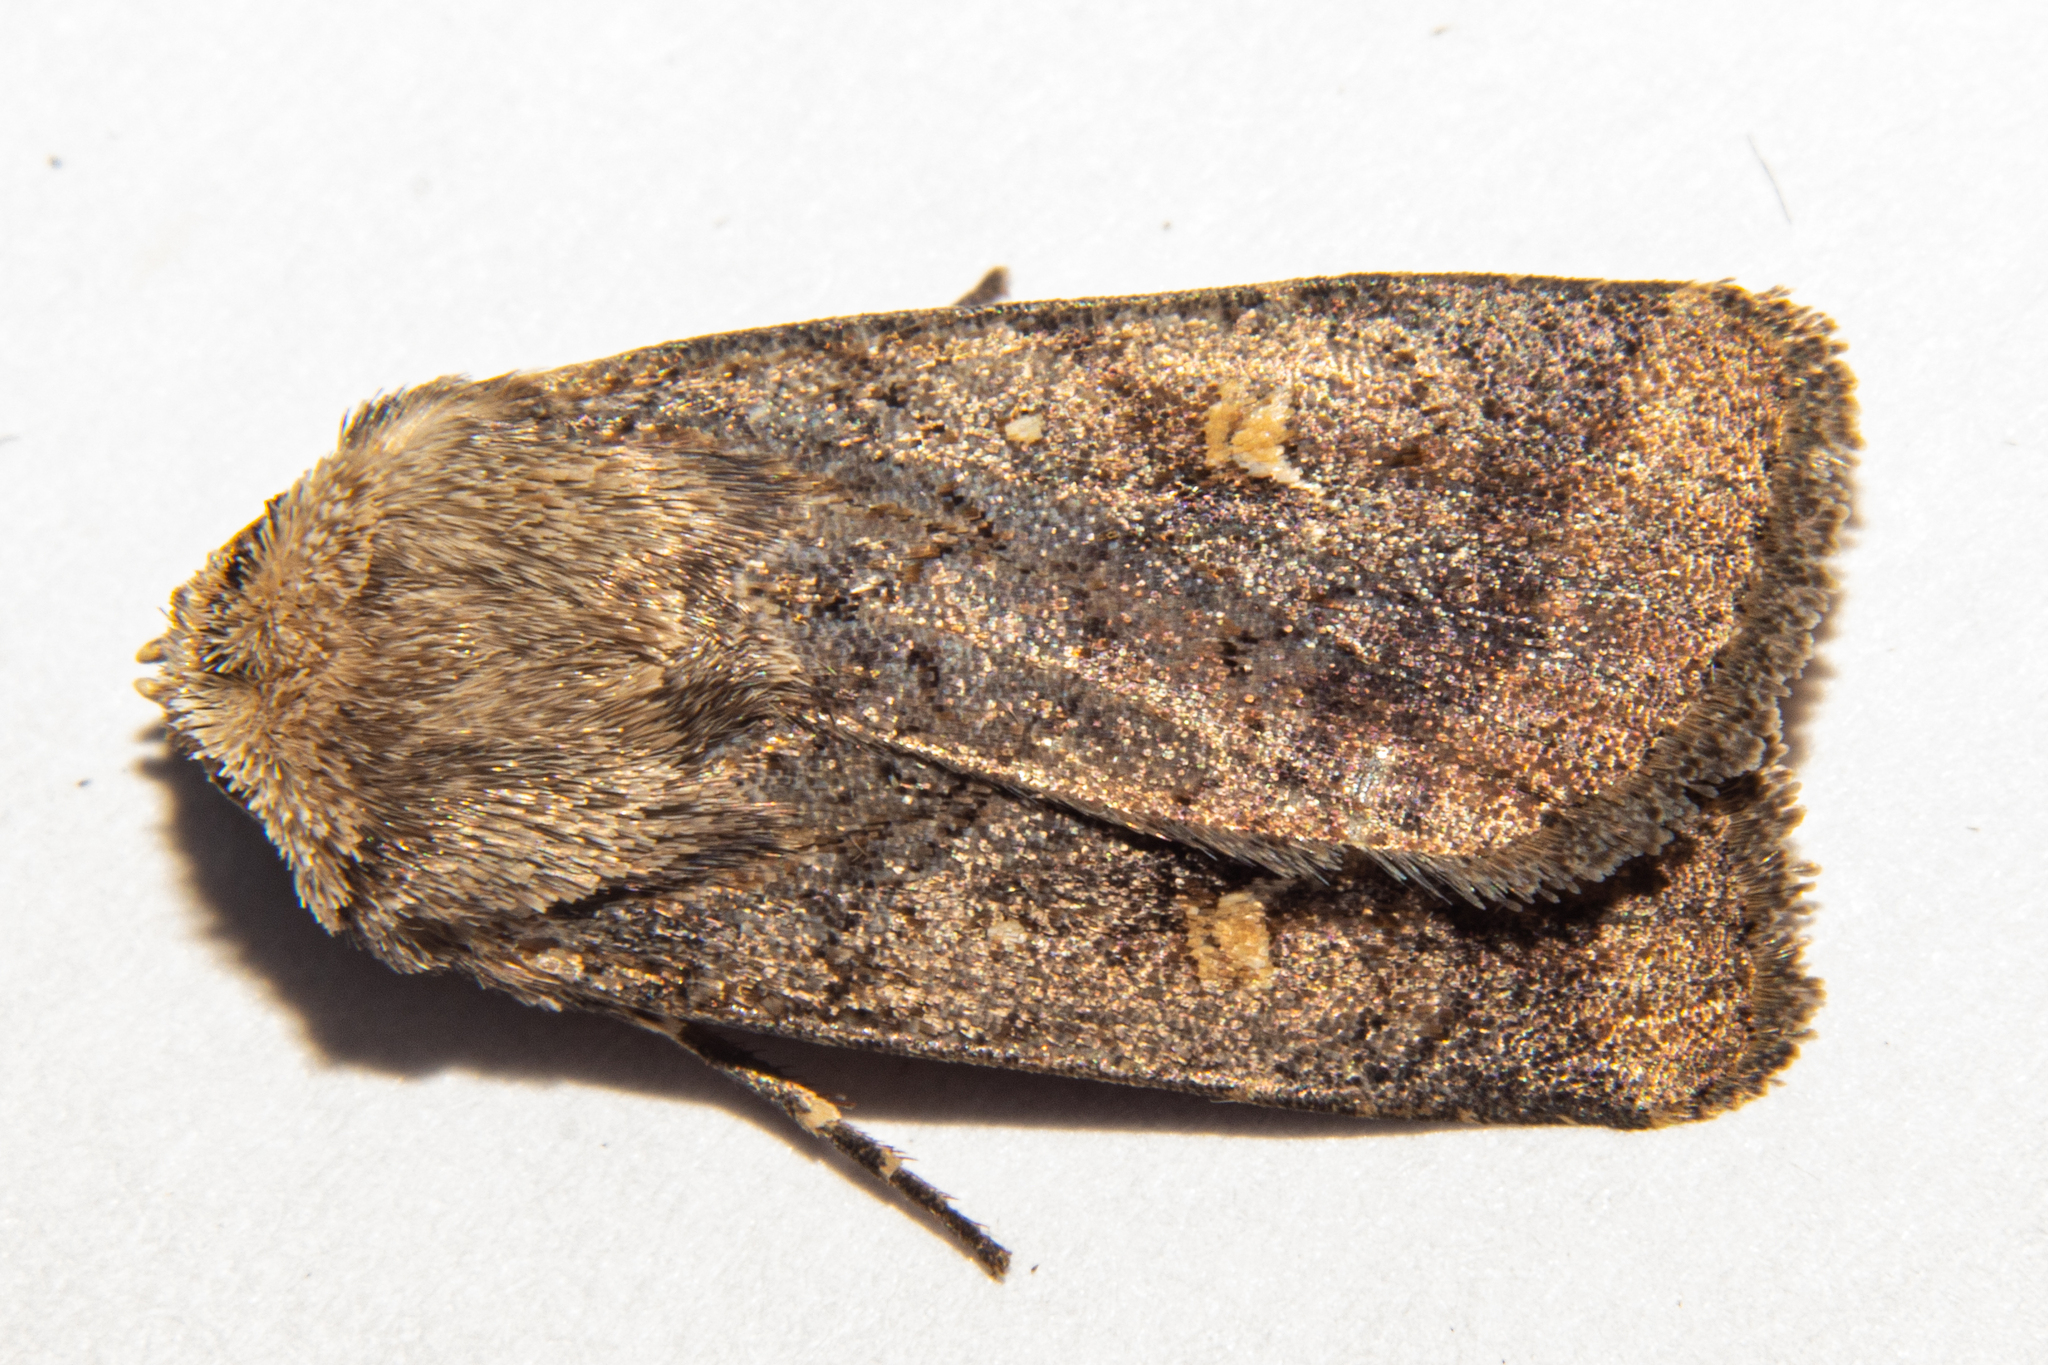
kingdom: Animalia
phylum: Arthropoda
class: Insecta
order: Lepidoptera
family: Noctuidae
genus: Proteuxoa
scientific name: Proteuxoa tetronycha
